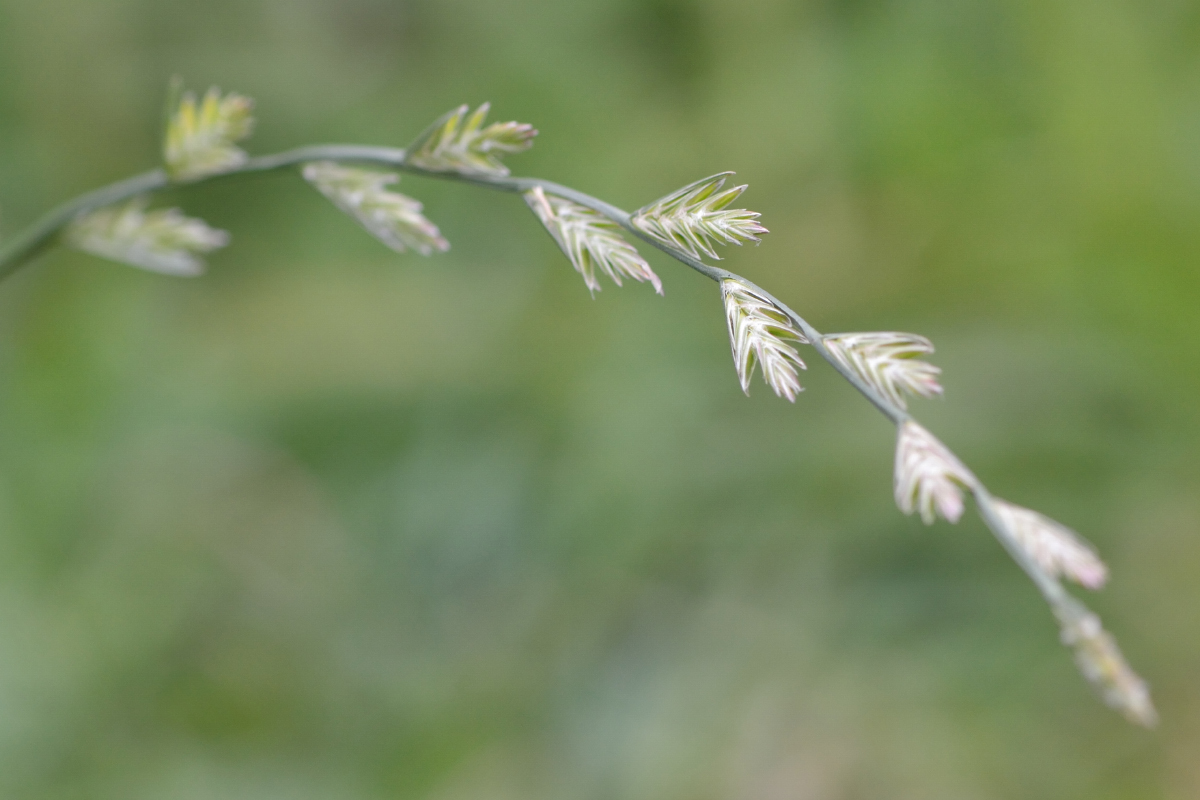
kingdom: Plantae
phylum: Tracheophyta
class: Liliopsida
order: Poales
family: Poaceae
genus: Lolium
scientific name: Lolium multiflorum
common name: Annual ryegrass
